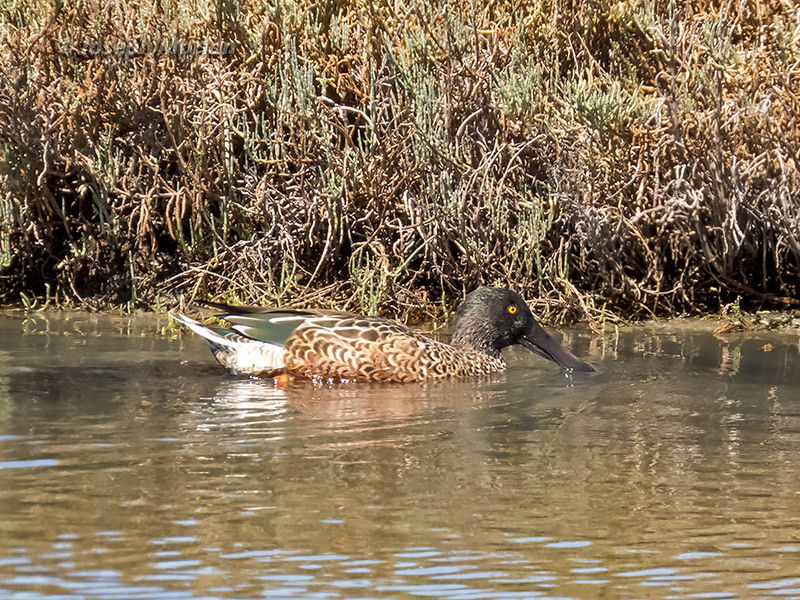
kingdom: Animalia
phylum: Chordata
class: Aves
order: Anseriformes
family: Anatidae
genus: Spatula
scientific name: Spatula clypeata
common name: Northern shoveler
